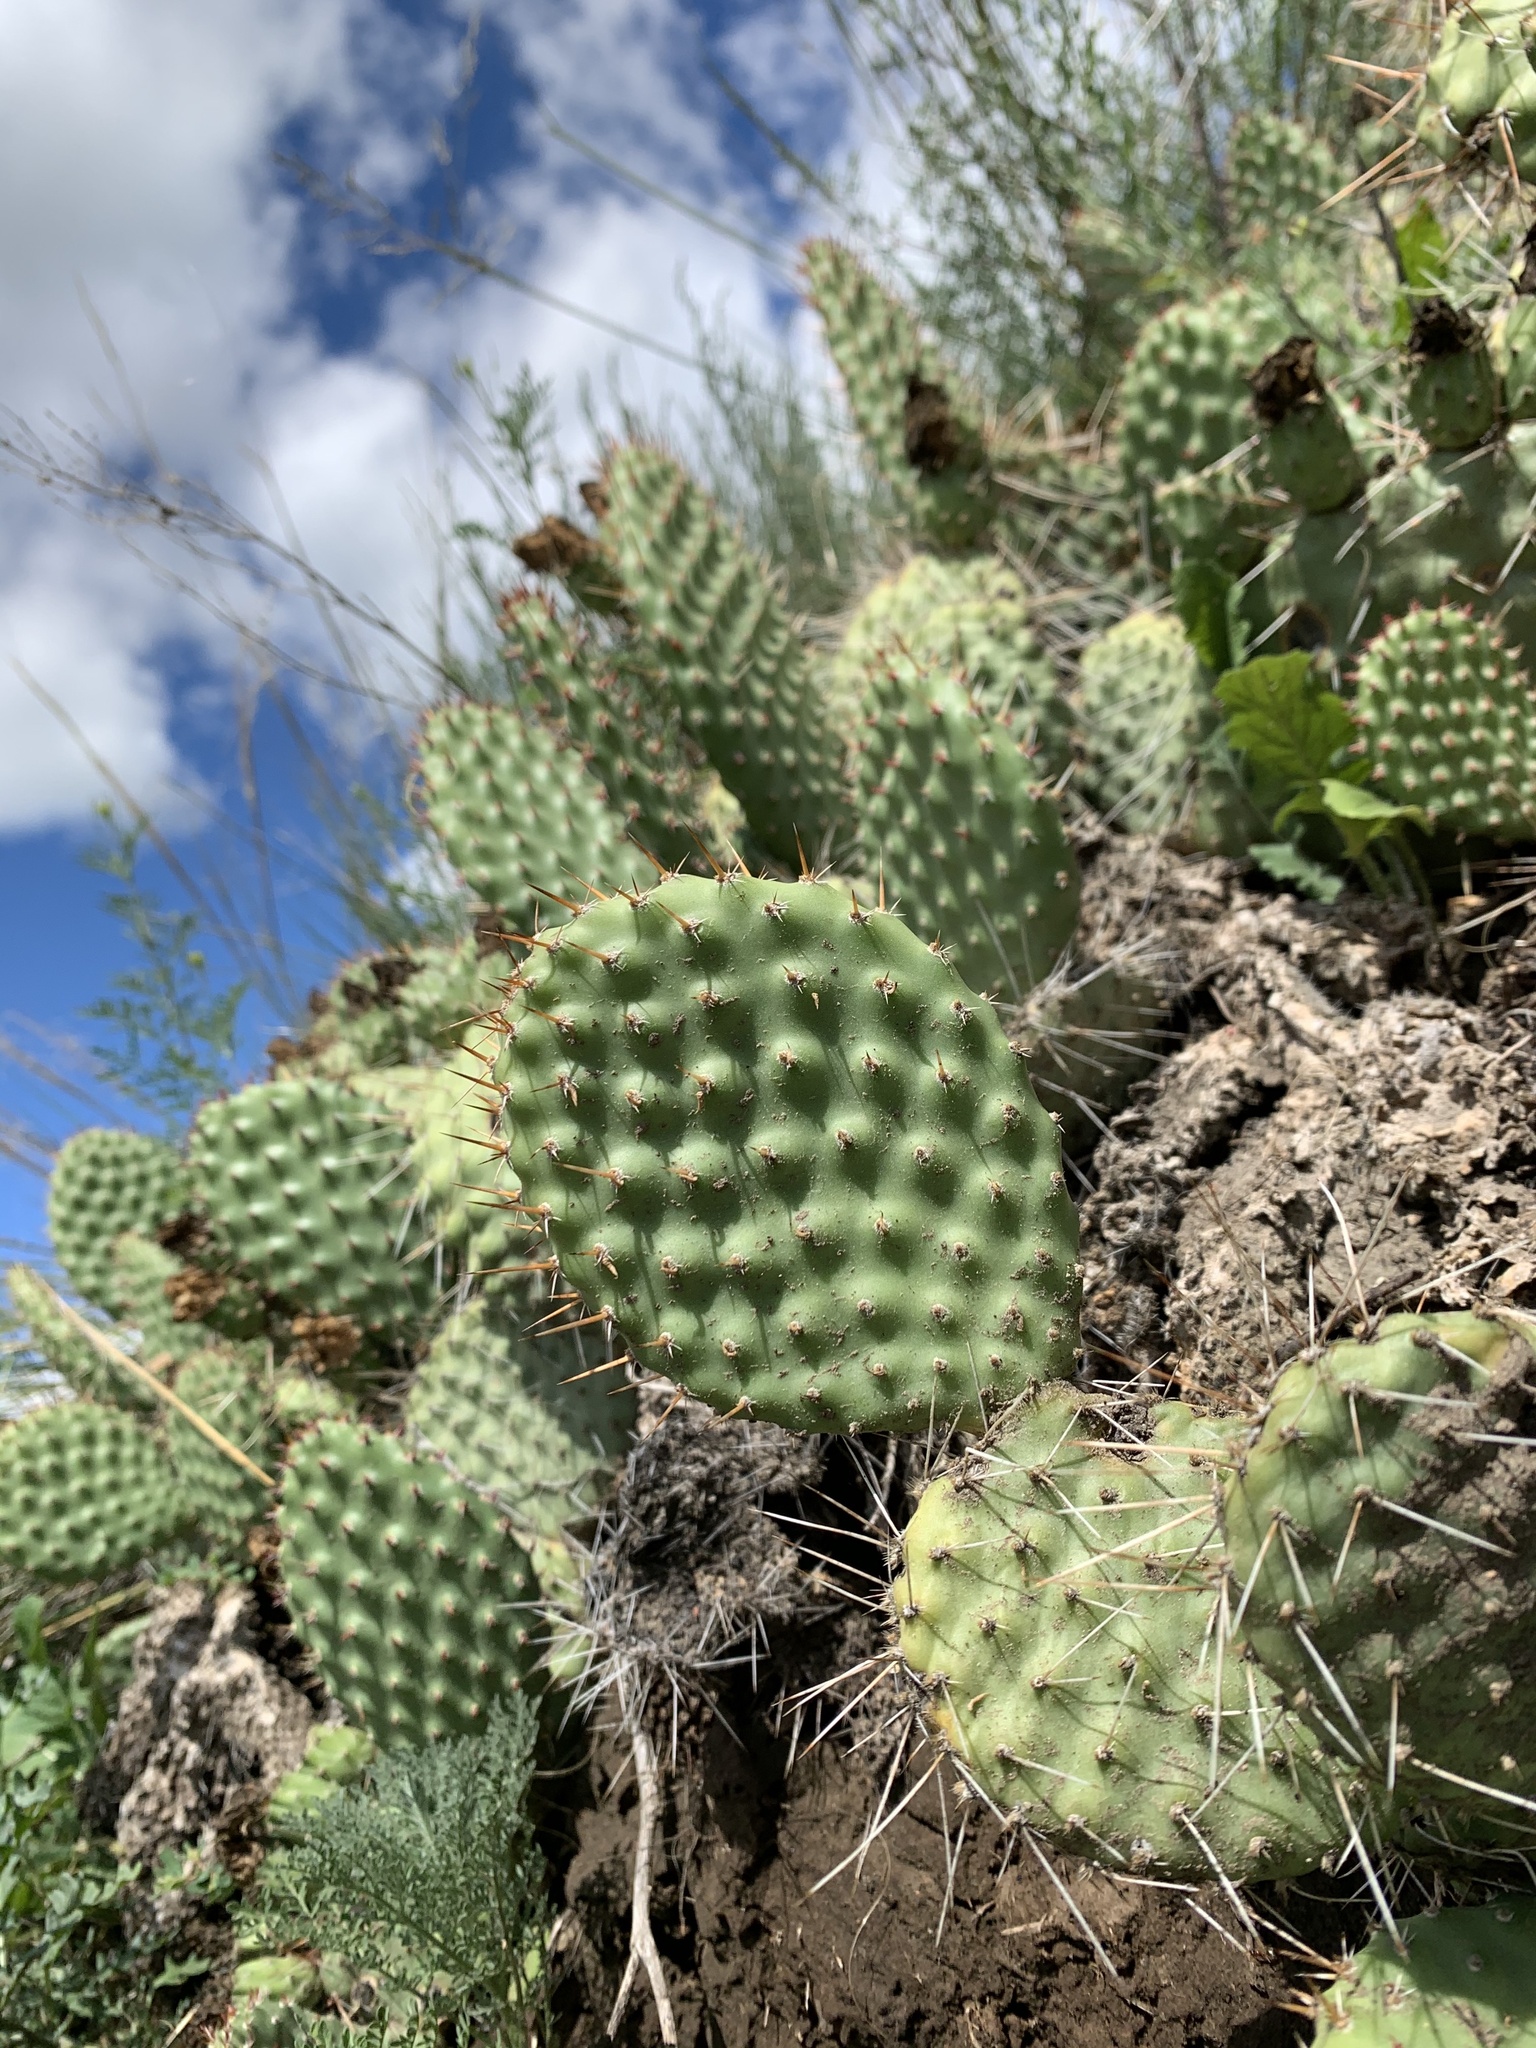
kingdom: Plantae
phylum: Tracheophyta
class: Magnoliopsida
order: Caryophyllales
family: Cactaceae
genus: Opuntia
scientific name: Opuntia polyacantha
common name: Plains prickly-pear
